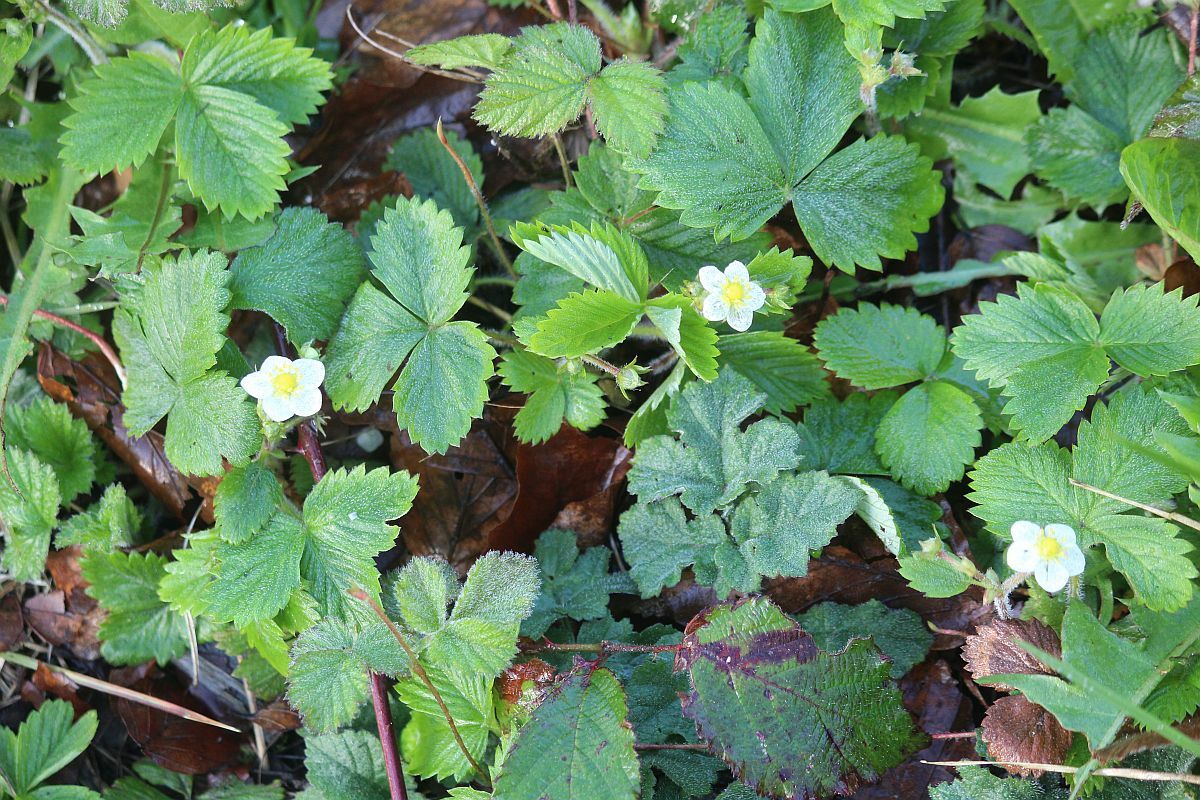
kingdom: Plantae
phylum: Tracheophyta
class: Magnoliopsida
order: Rosales
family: Rosaceae
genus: Fragaria
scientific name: Fragaria vesca
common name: Wild strawberry
